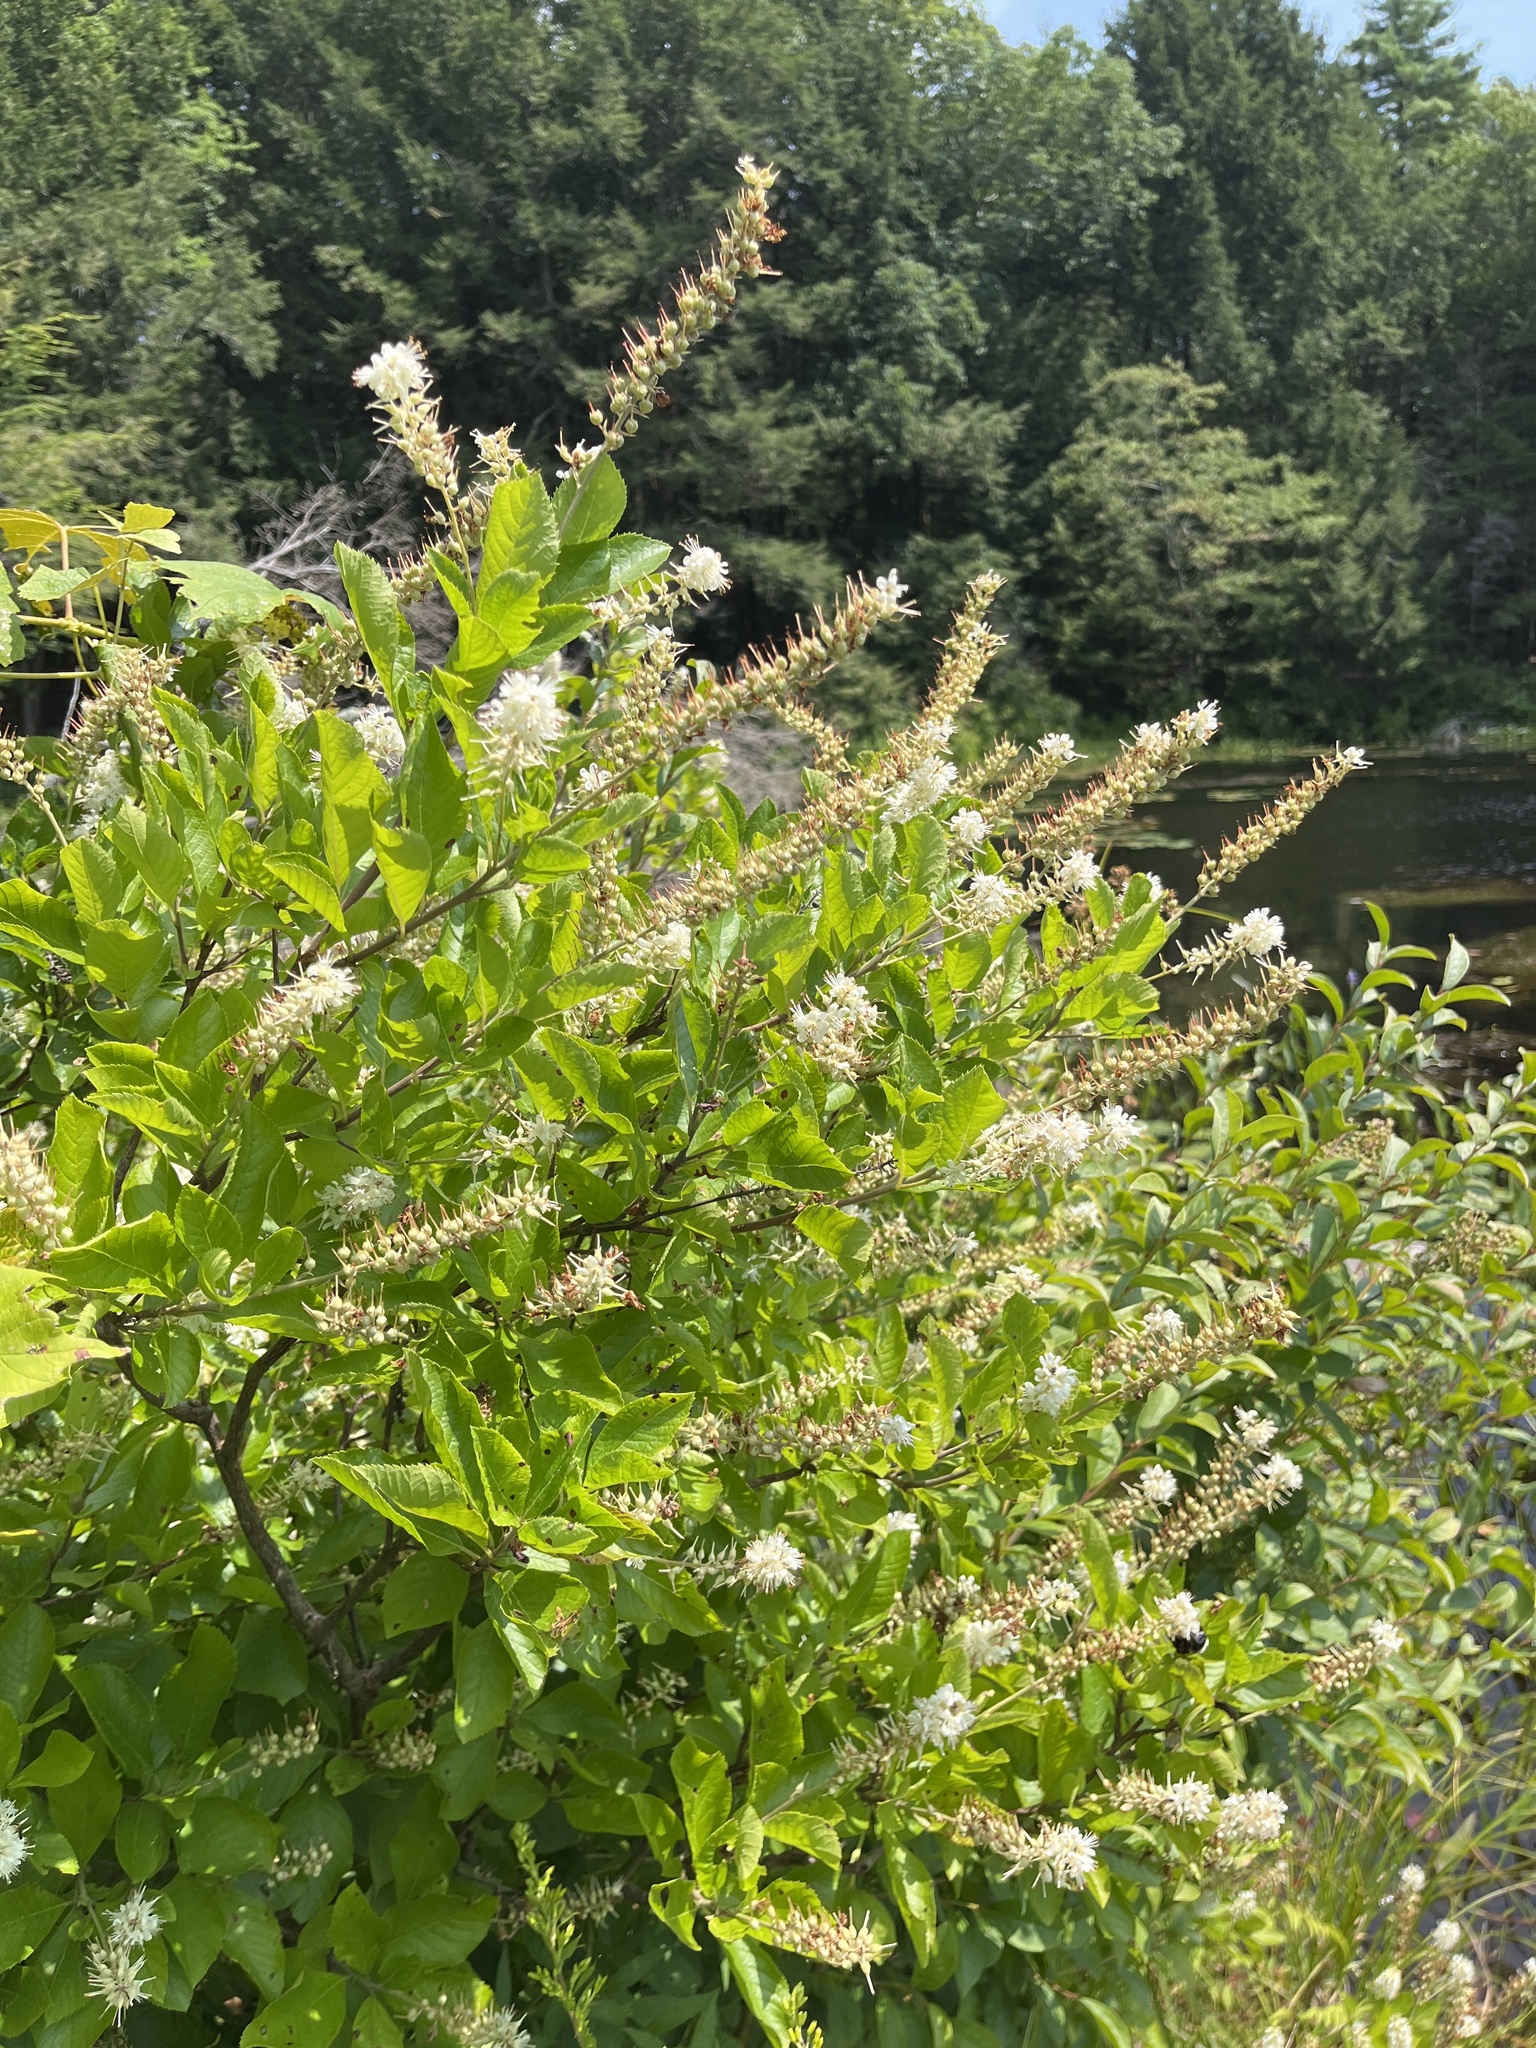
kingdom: Plantae
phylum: Tracheophyta
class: Magnoliopsida
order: Ericales
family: Clethraceae
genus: Clethra
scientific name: Clethra alnifolia
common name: Sweet pepperbush
